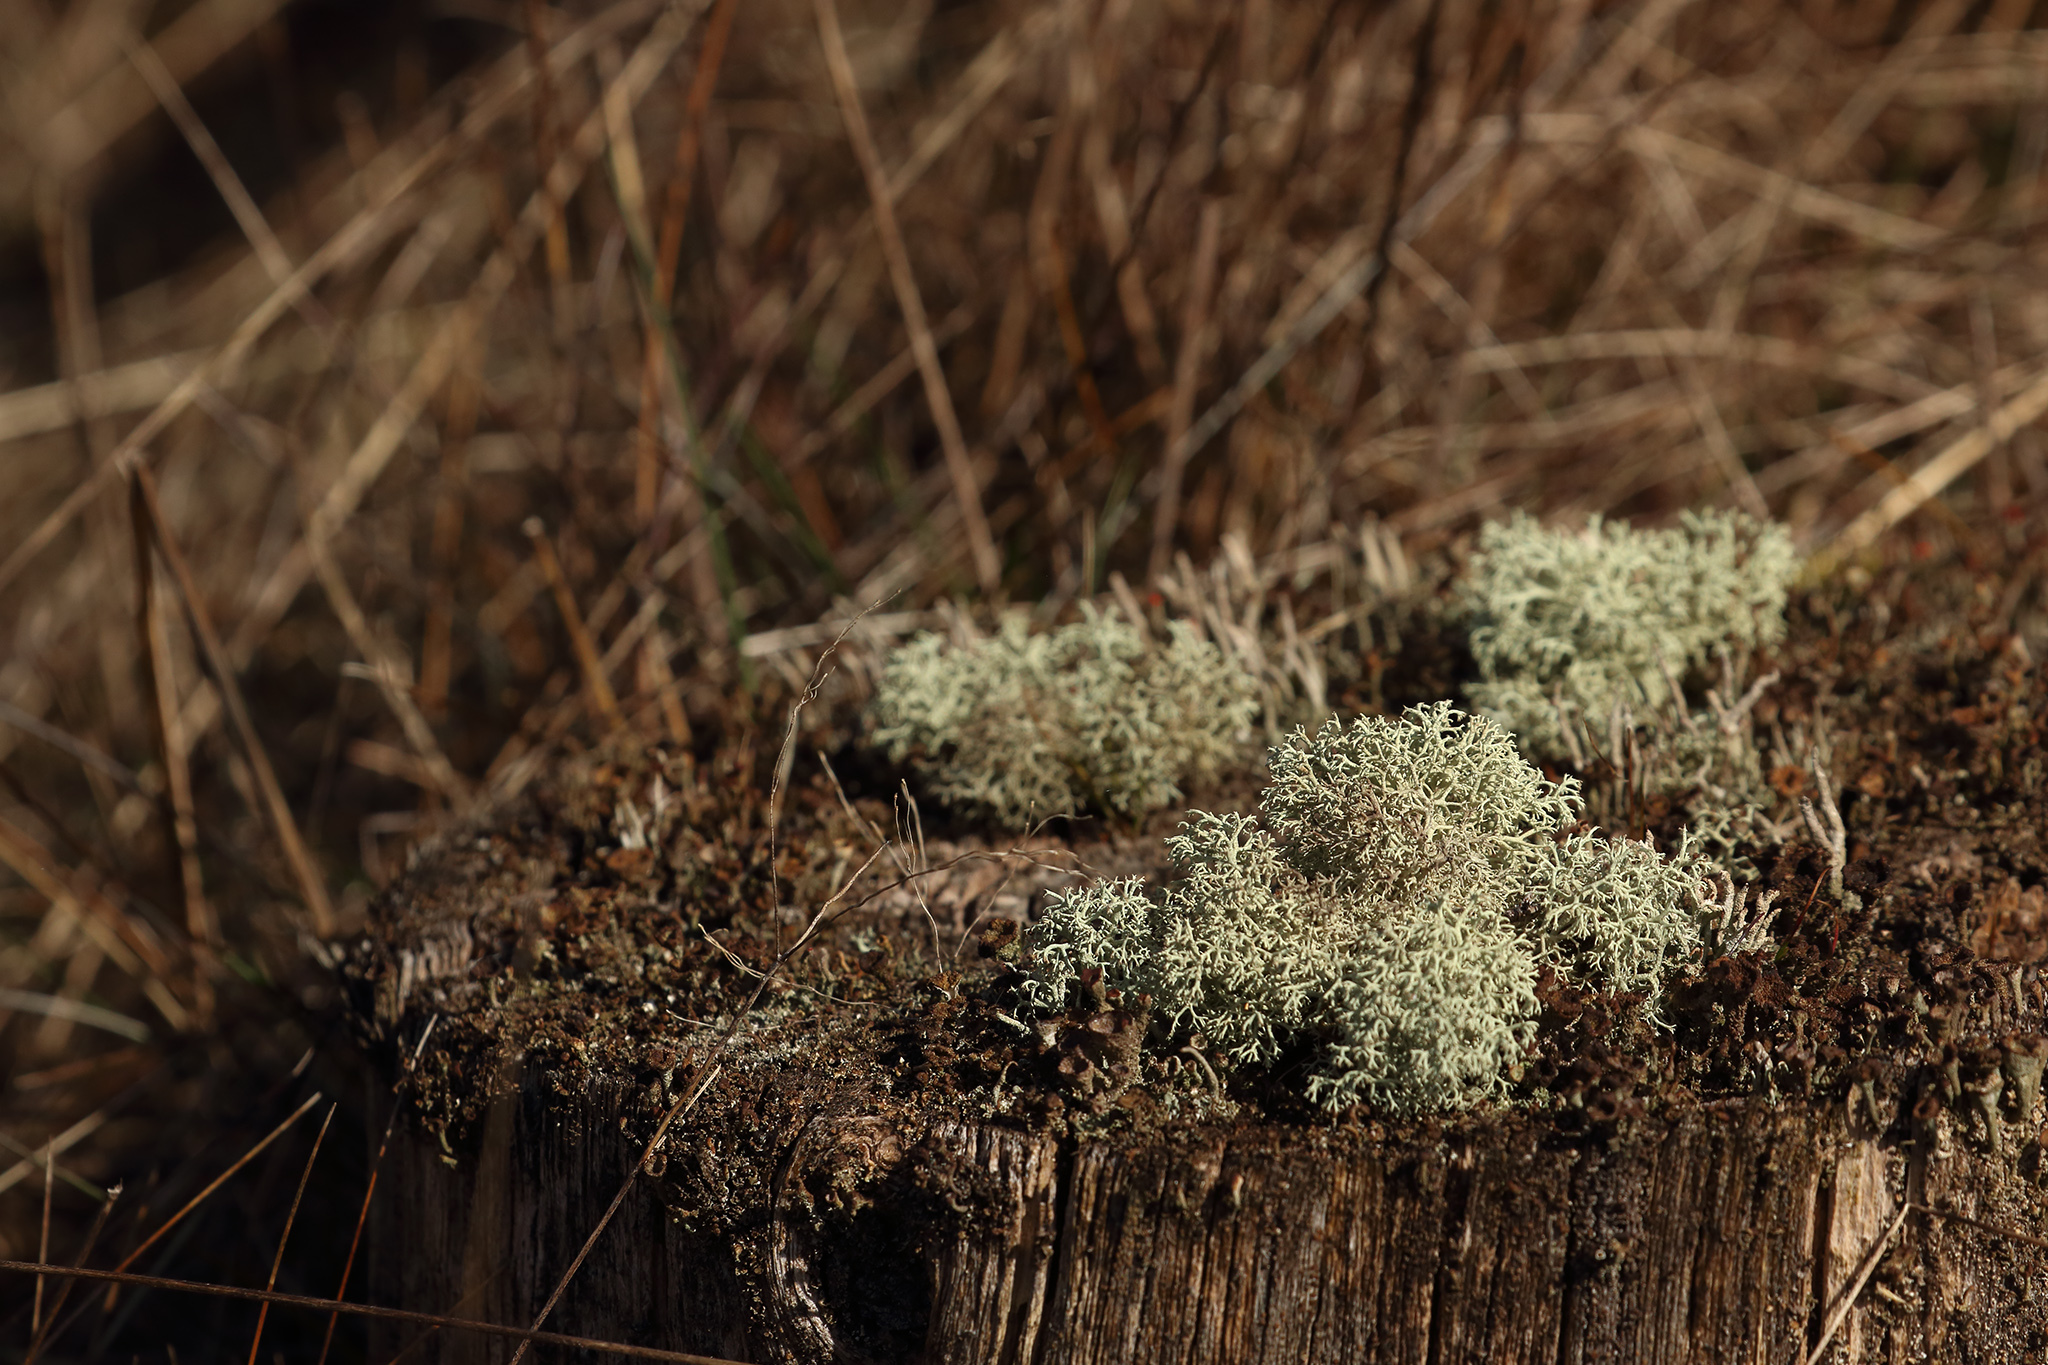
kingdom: Fungi
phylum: Ascomycota
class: Lecanoromycetes
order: Lecanorales
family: Cladoniaceae
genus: Cladonia
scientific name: Cladonia portentosa
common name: Reindeer lichen
